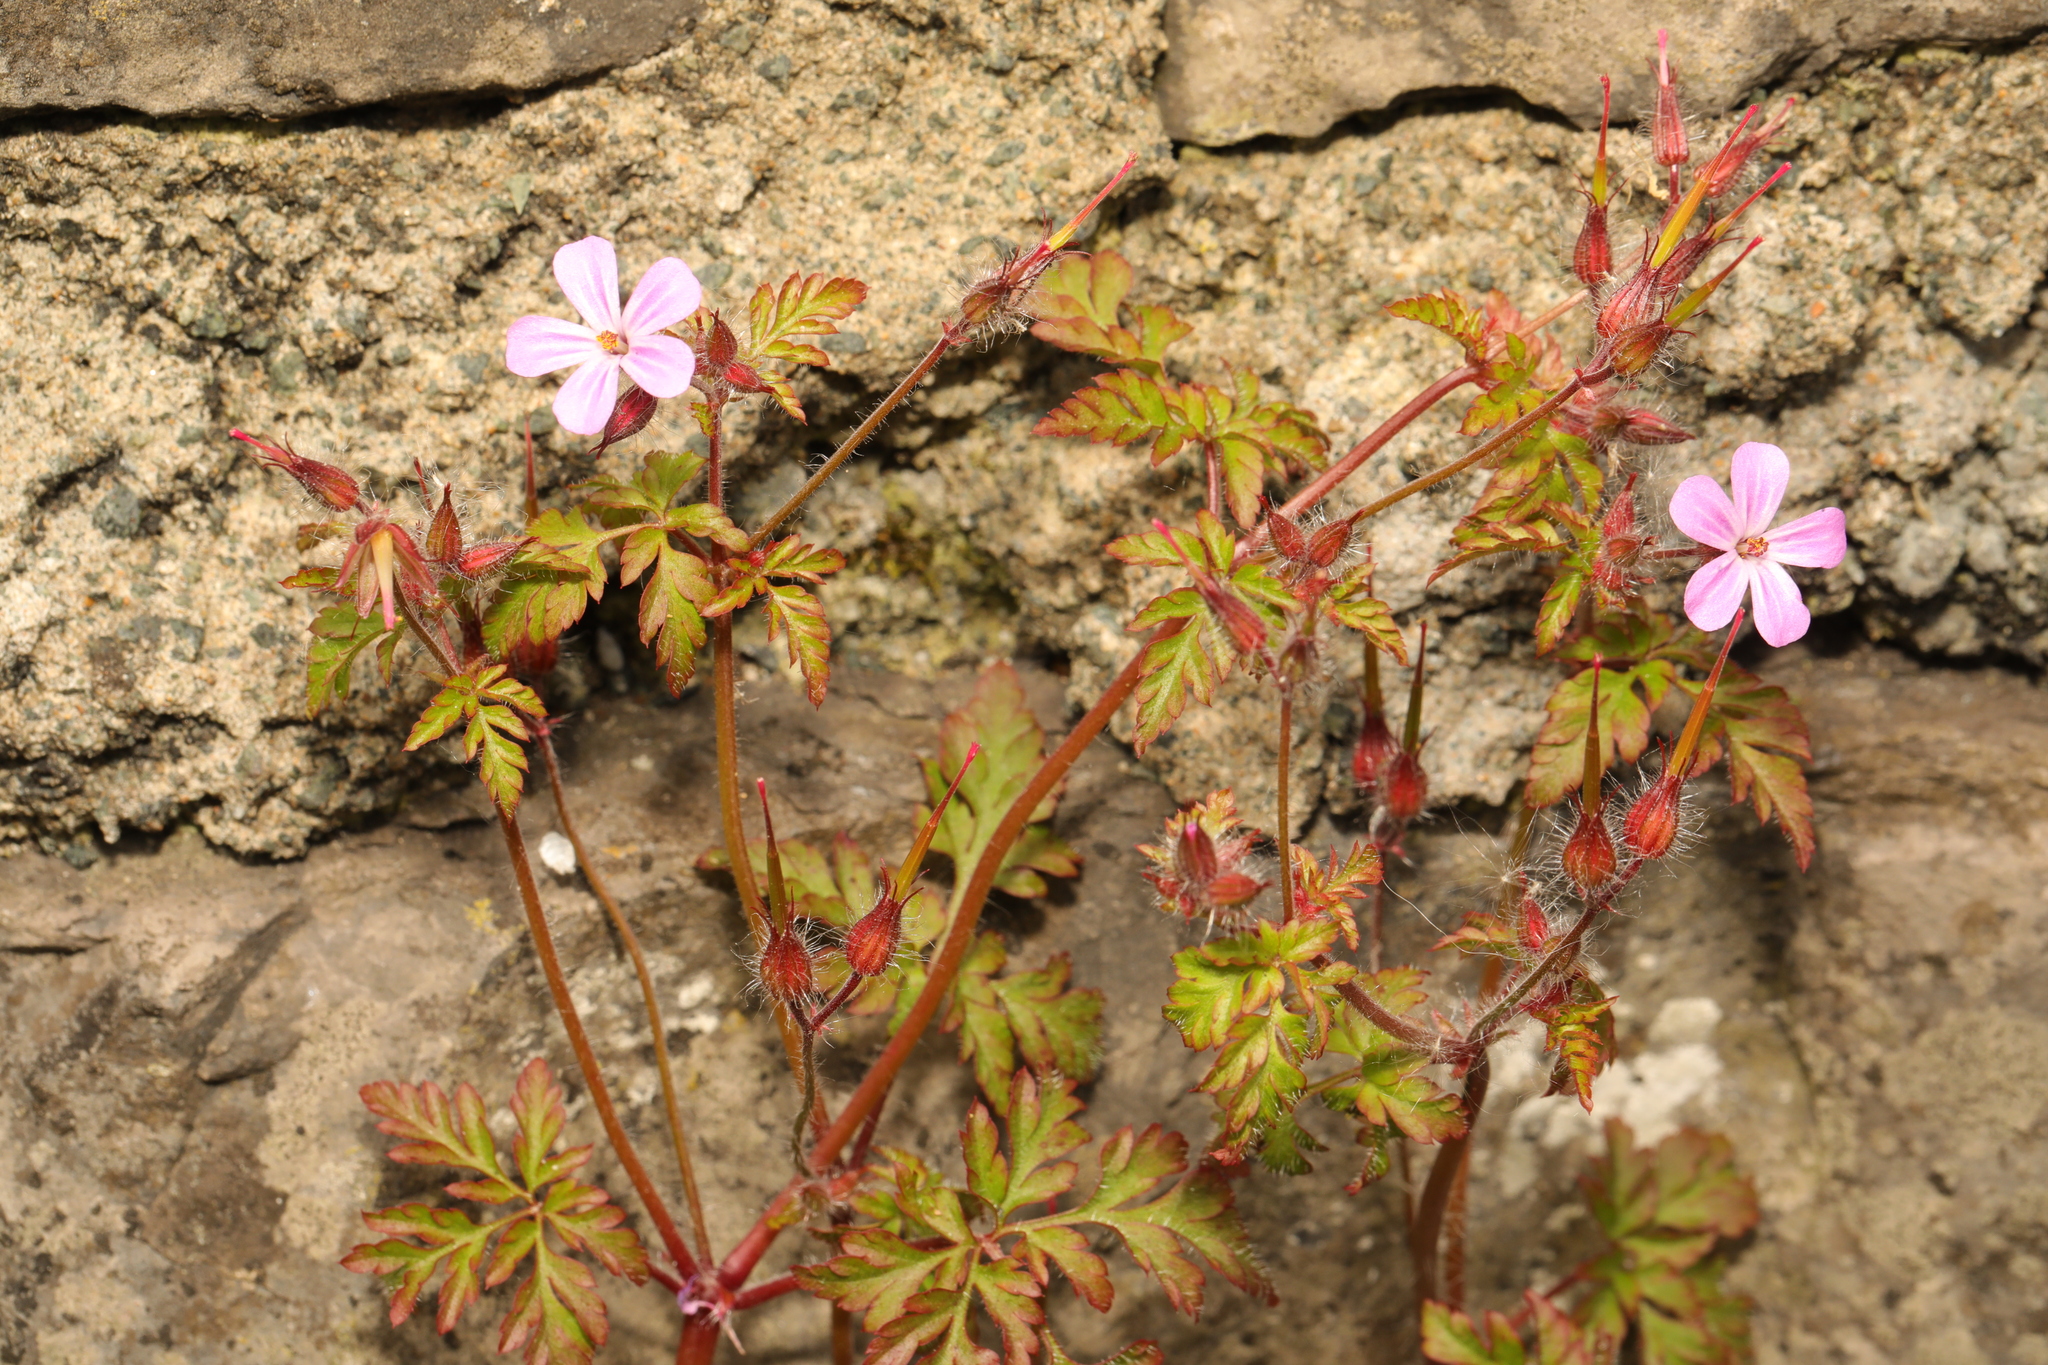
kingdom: Plantae
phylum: Tracheophyta
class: Magnoliopsida
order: Geraniales
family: Geraniaceae
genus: Geranium
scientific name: Geranium robertianum
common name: Herb-robert
